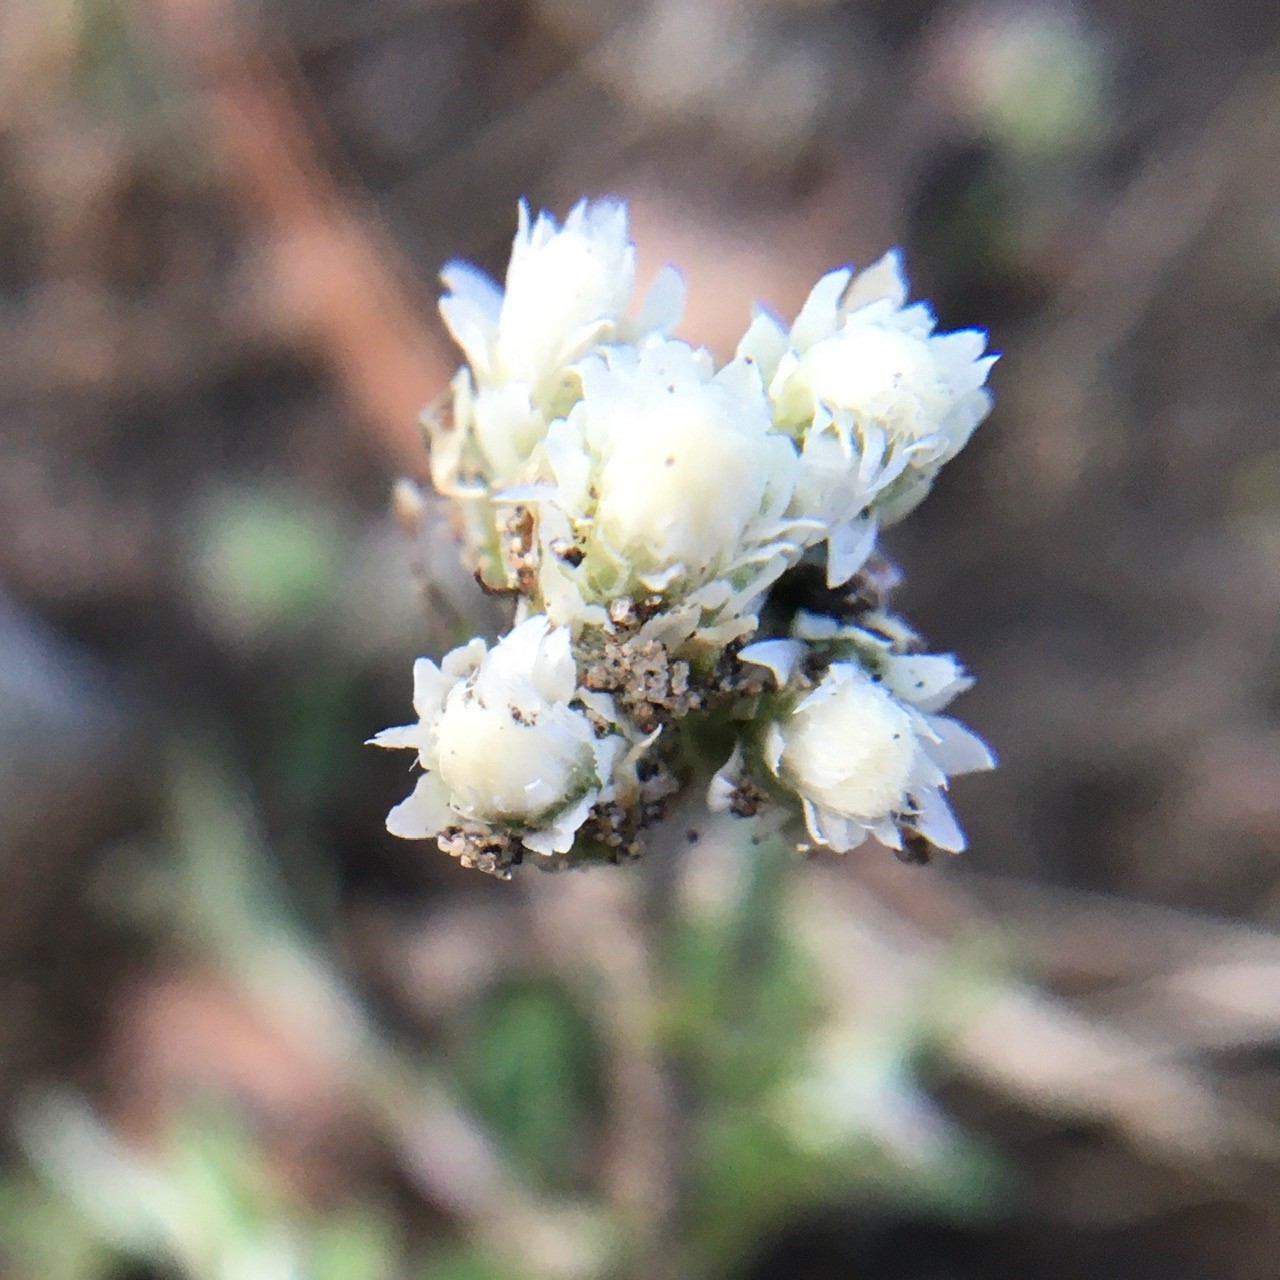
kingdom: Plantae
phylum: Tracheophyta
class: Magnoliopsida
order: Asterales
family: Asteraceae
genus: Antennaria
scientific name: Antennaria howellii
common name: Howell's pussytoes
